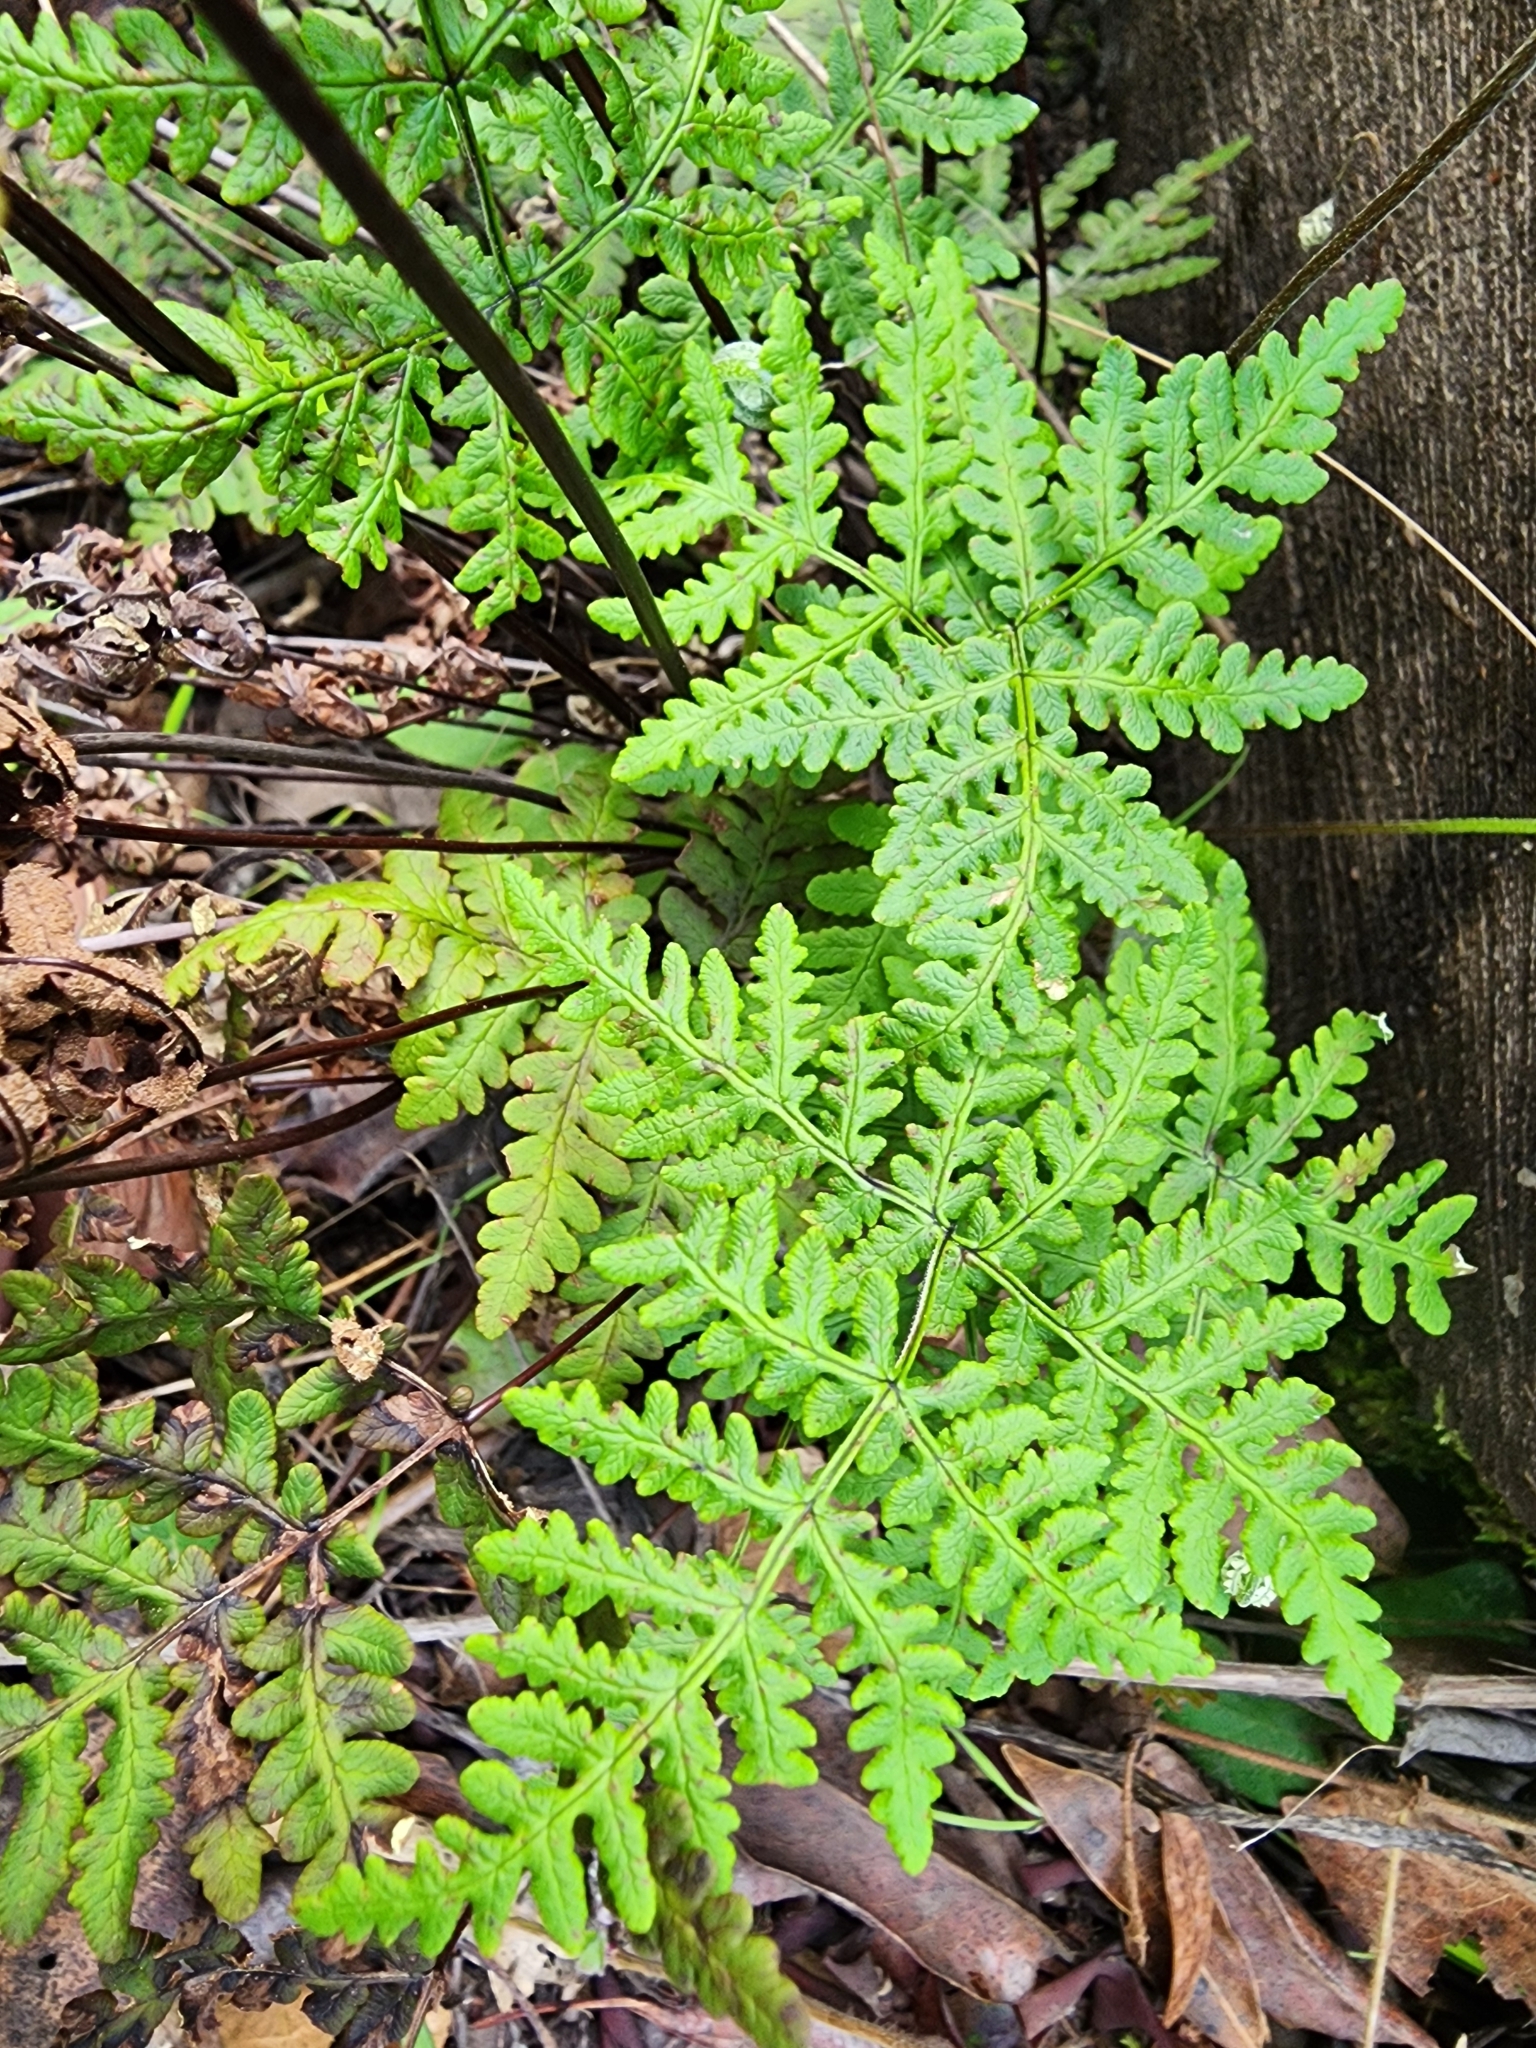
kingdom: Plantae
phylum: Tracheophyta
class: Polypodiopsida
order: Polypodiales
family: Pteridaceae
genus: Pentagramma
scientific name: Pentagramma triangularis
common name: Gold fern
